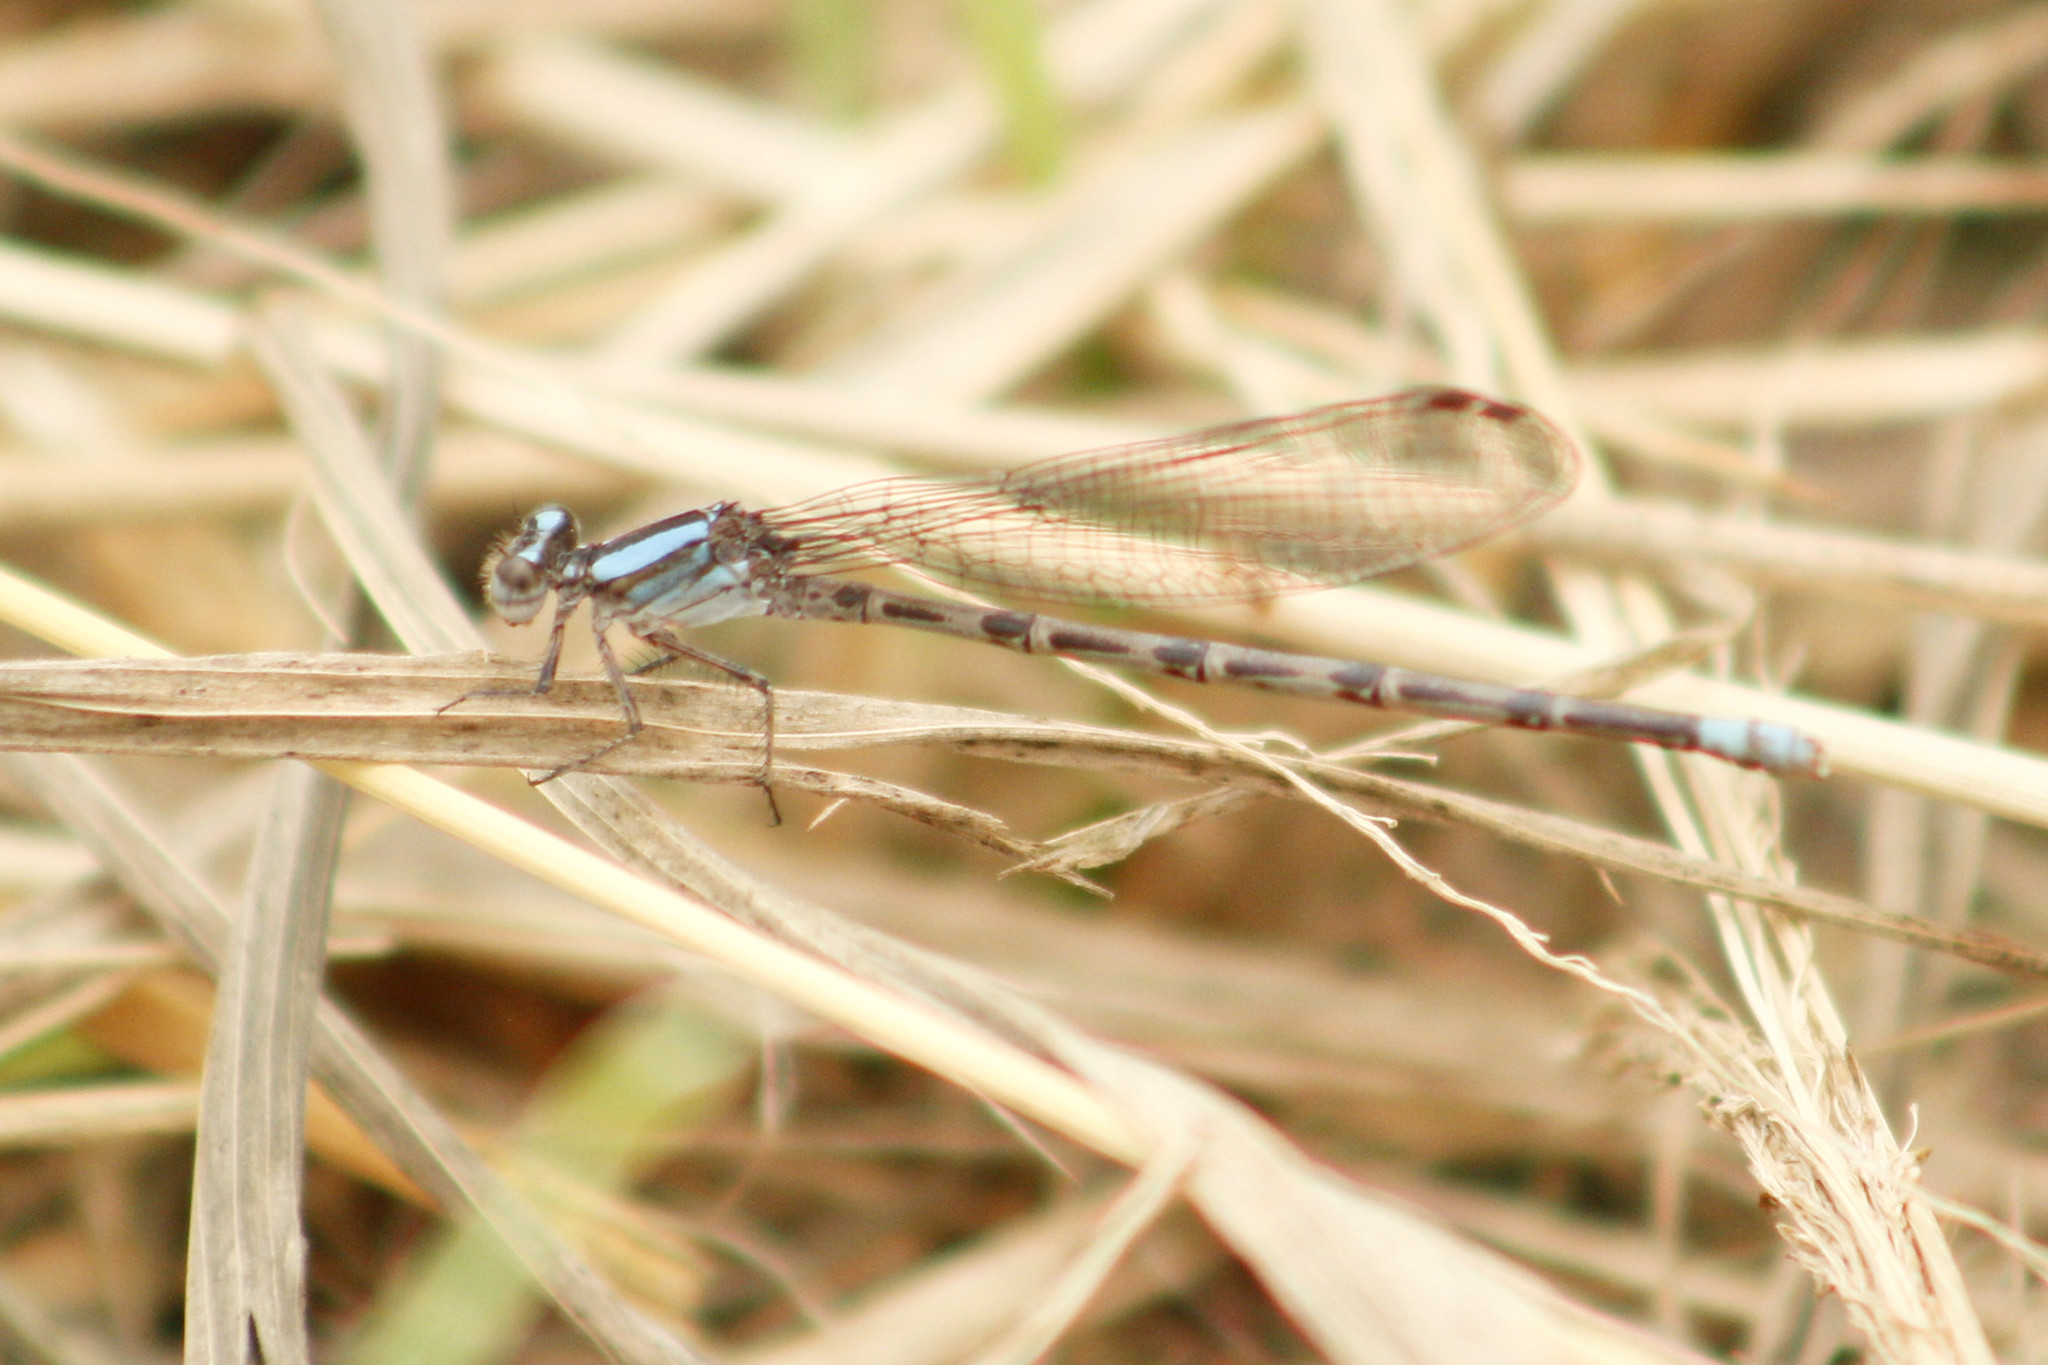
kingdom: Animalia
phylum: Arthropoda
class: Insecta
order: Odonata
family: Coenagrionidae
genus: Argia
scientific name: Argia immunda
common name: Kiowa dancer
